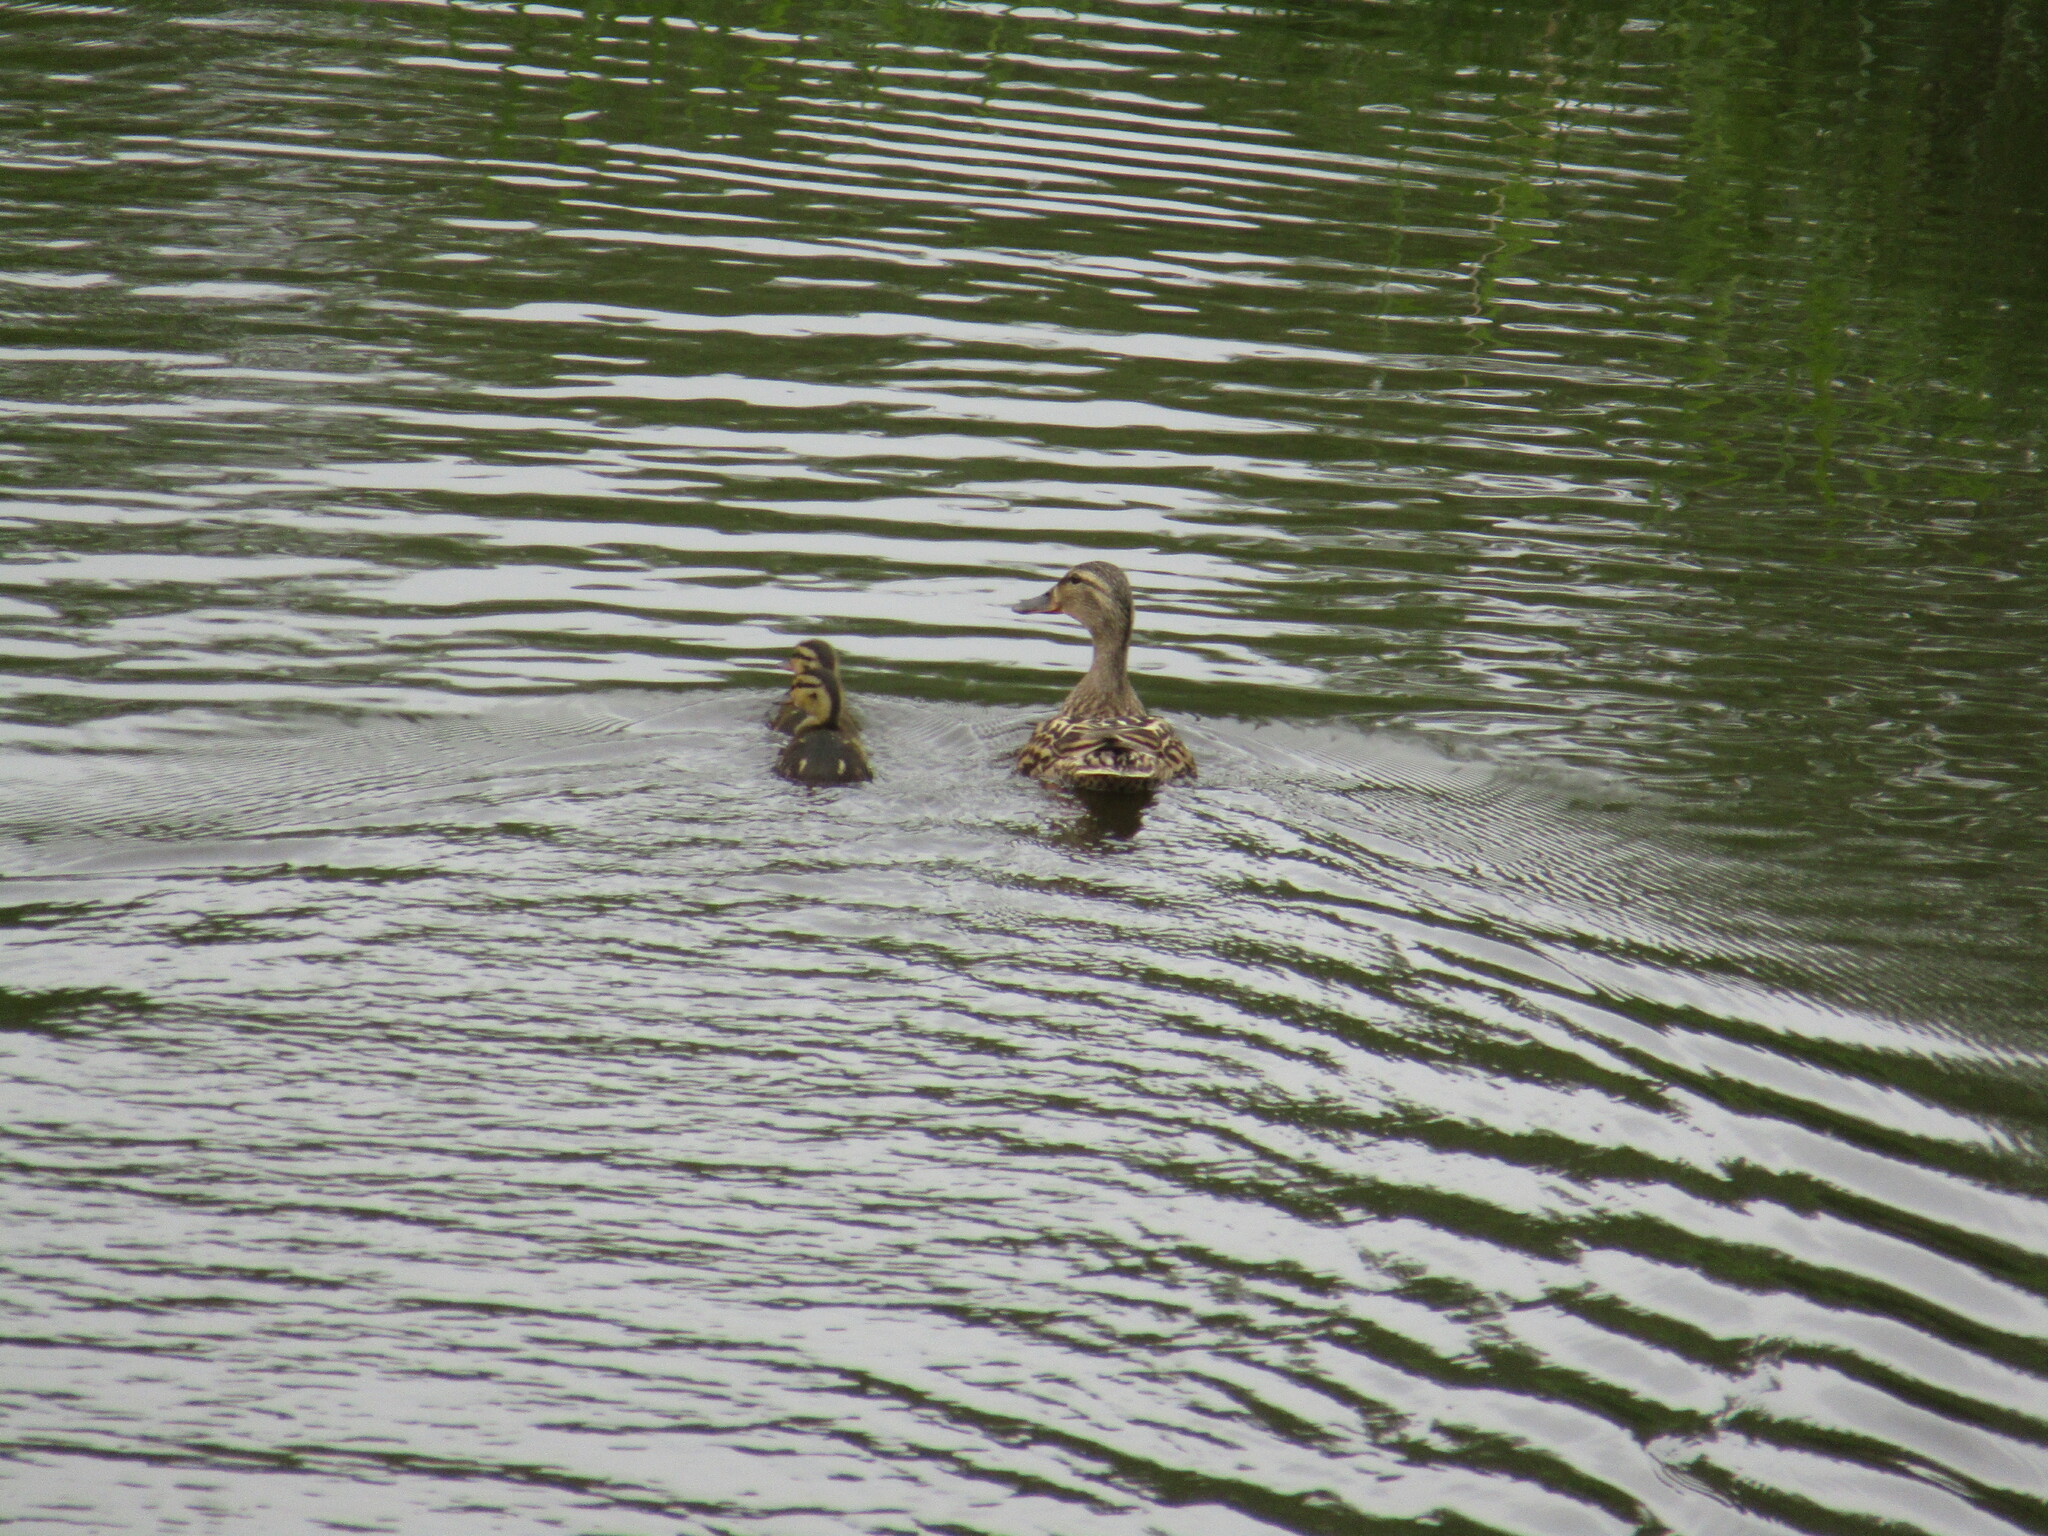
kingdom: Animalia
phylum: Chordata
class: Aves
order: Anseriformes
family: Anatidae
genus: Anas
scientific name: Anas platyrhynchos
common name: Mallard
